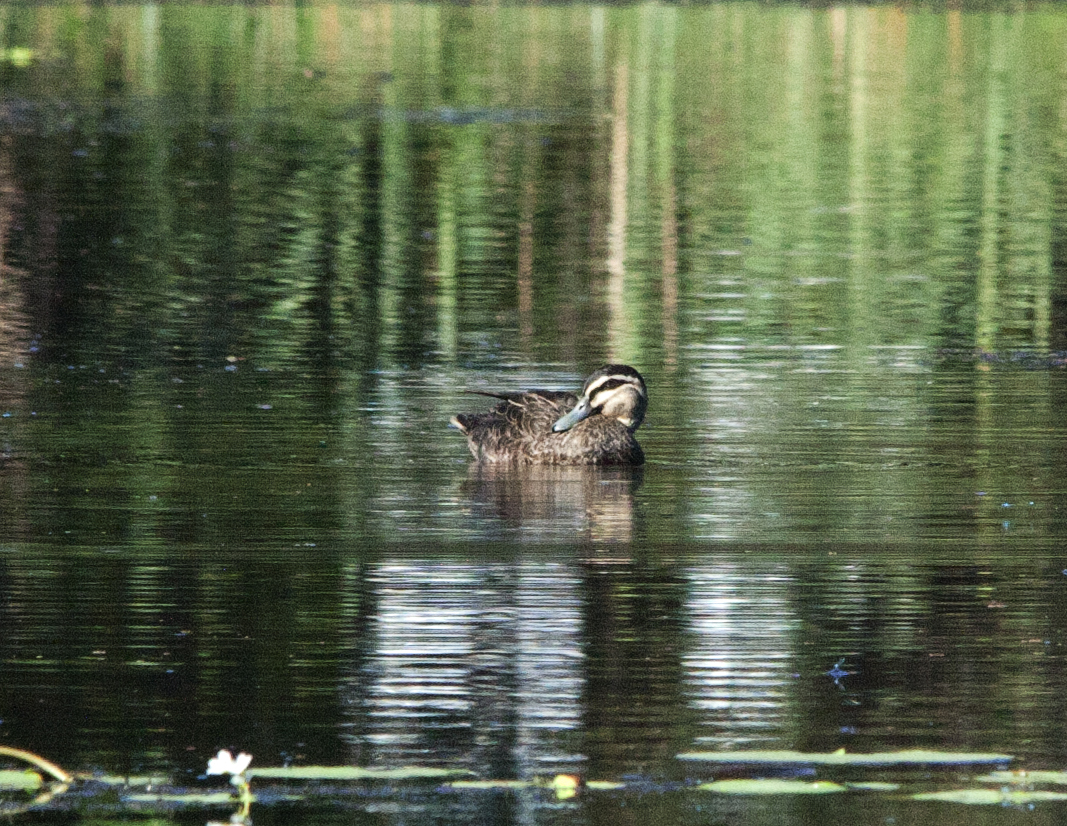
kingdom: Animalia
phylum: Chordata
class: Aves
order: Anseriformes
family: Anatidae
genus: Anas
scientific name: Anas superciliosa
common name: Pacific black duck
